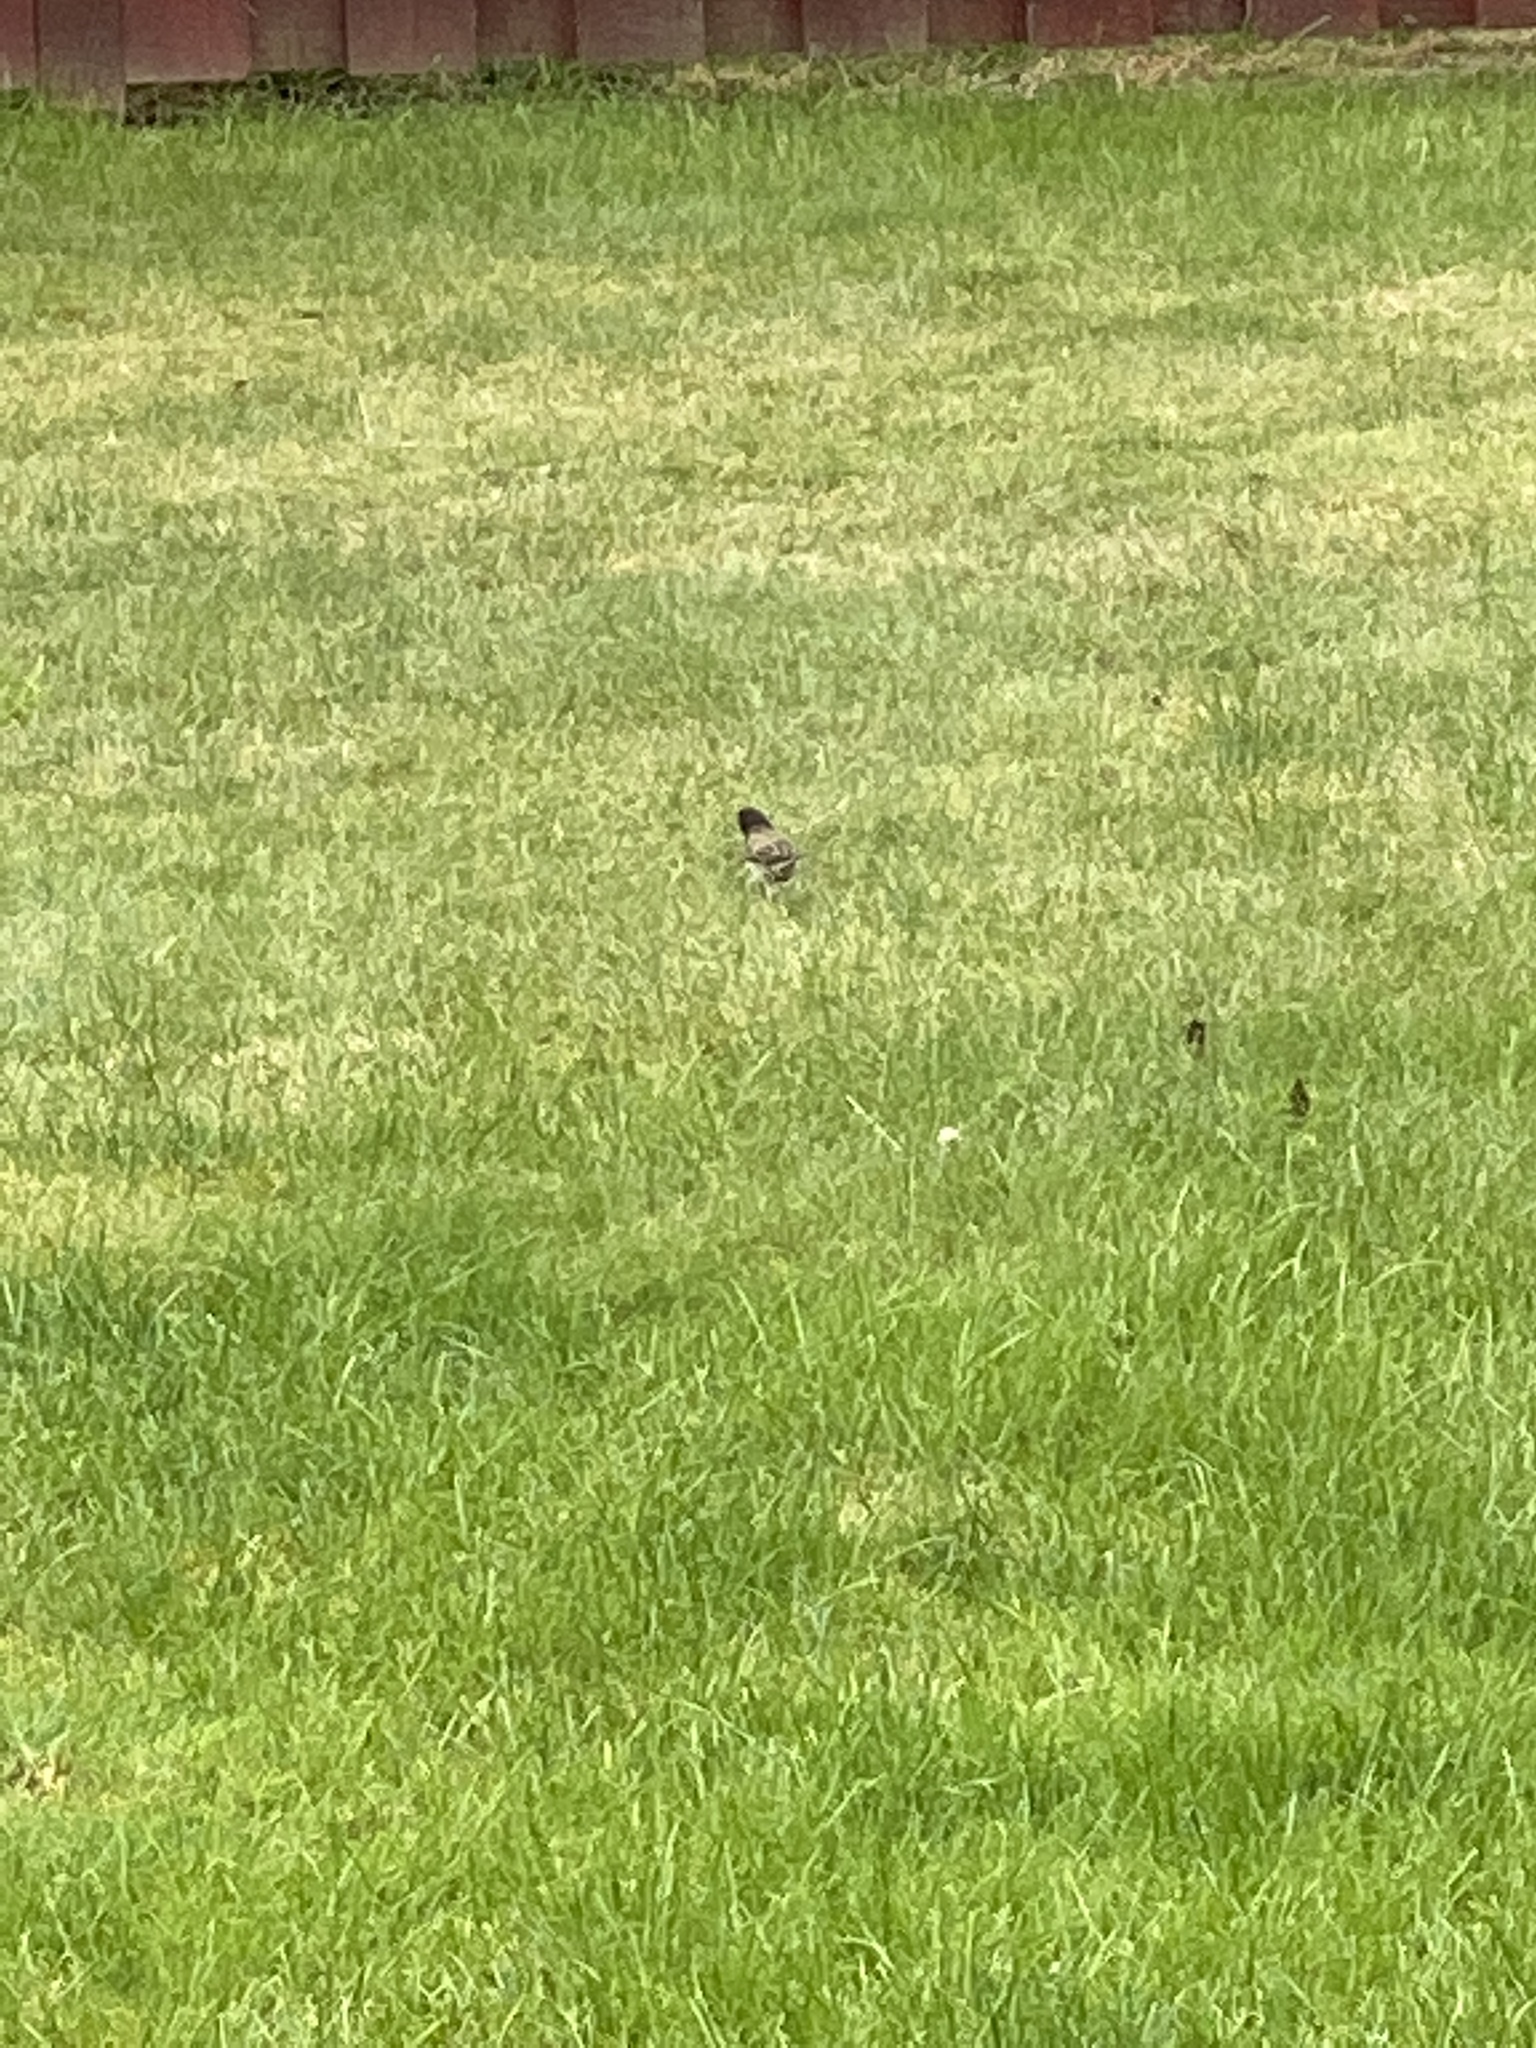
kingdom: Animalia
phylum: Chordata
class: Aves
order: Passeriformes
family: Passerellidae
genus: Junco
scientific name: Junco hyemalis
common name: Dark-eyed junco
